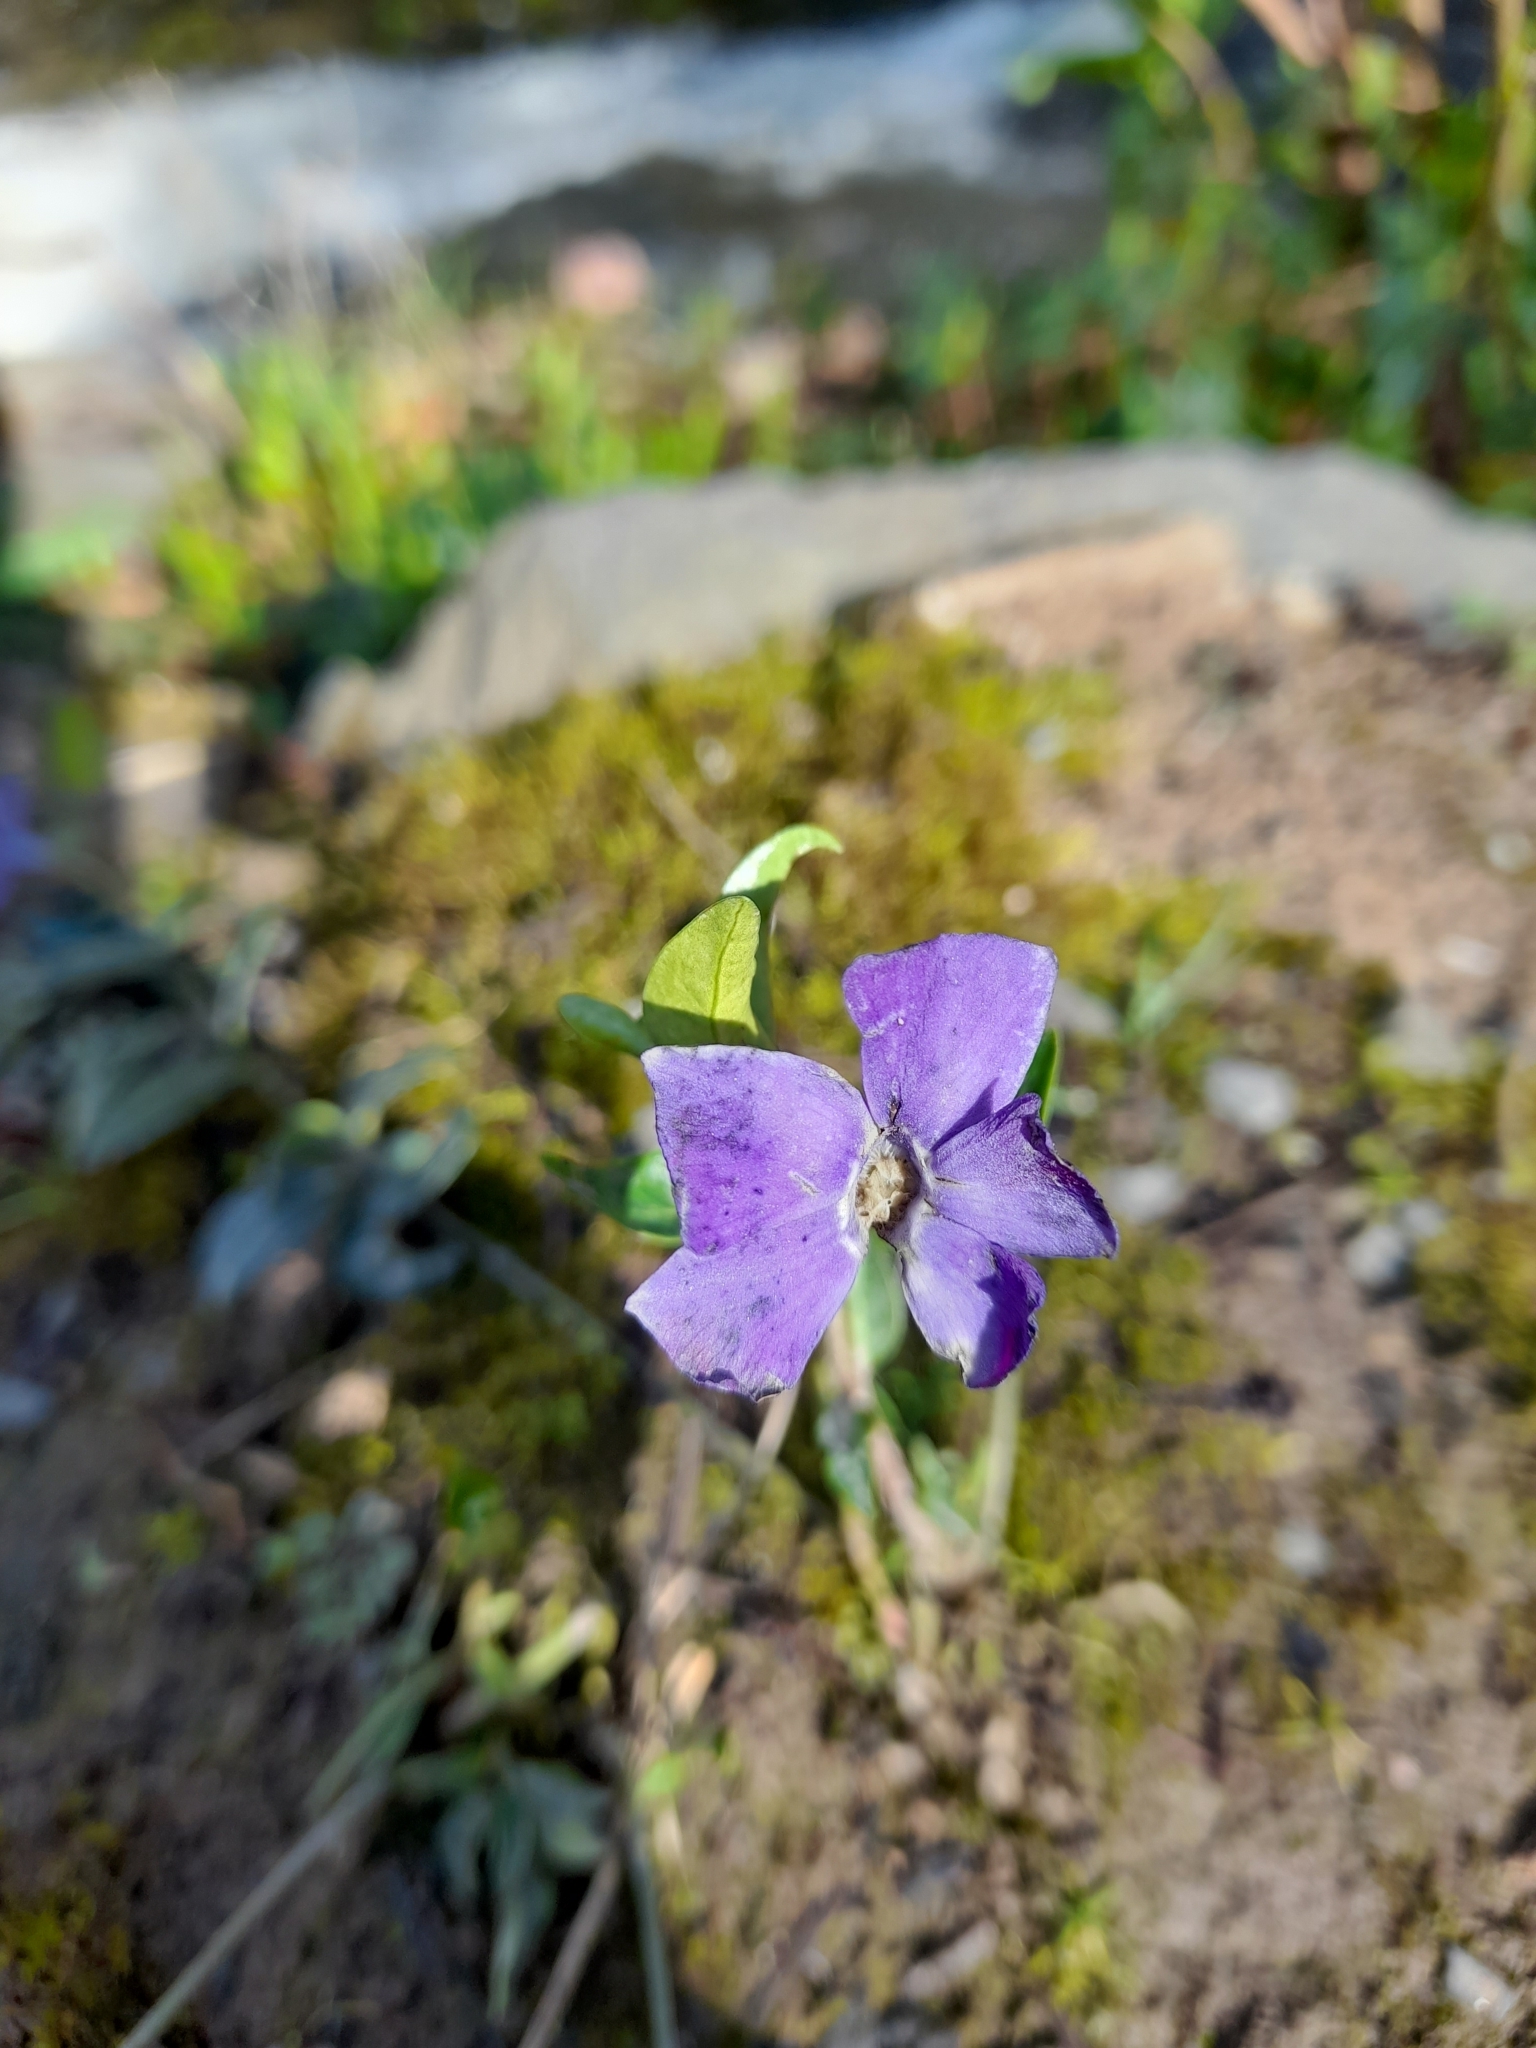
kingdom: Plantae
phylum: Tracheophyta
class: Magnoliopsida
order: Gentianales
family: Apocynaceae
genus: Vinca
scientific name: Vinca minor
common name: Lesser periwinkle
